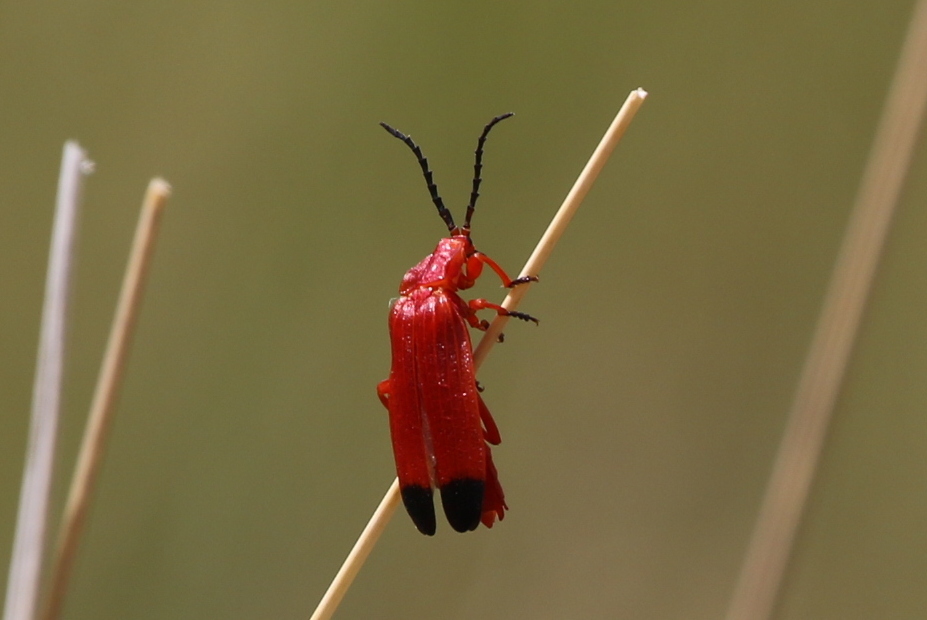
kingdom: Animalia
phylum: Arthropoda
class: Insecta
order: Coleoptera
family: Lycidae
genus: Lycus
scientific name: Lycus sanguineus
